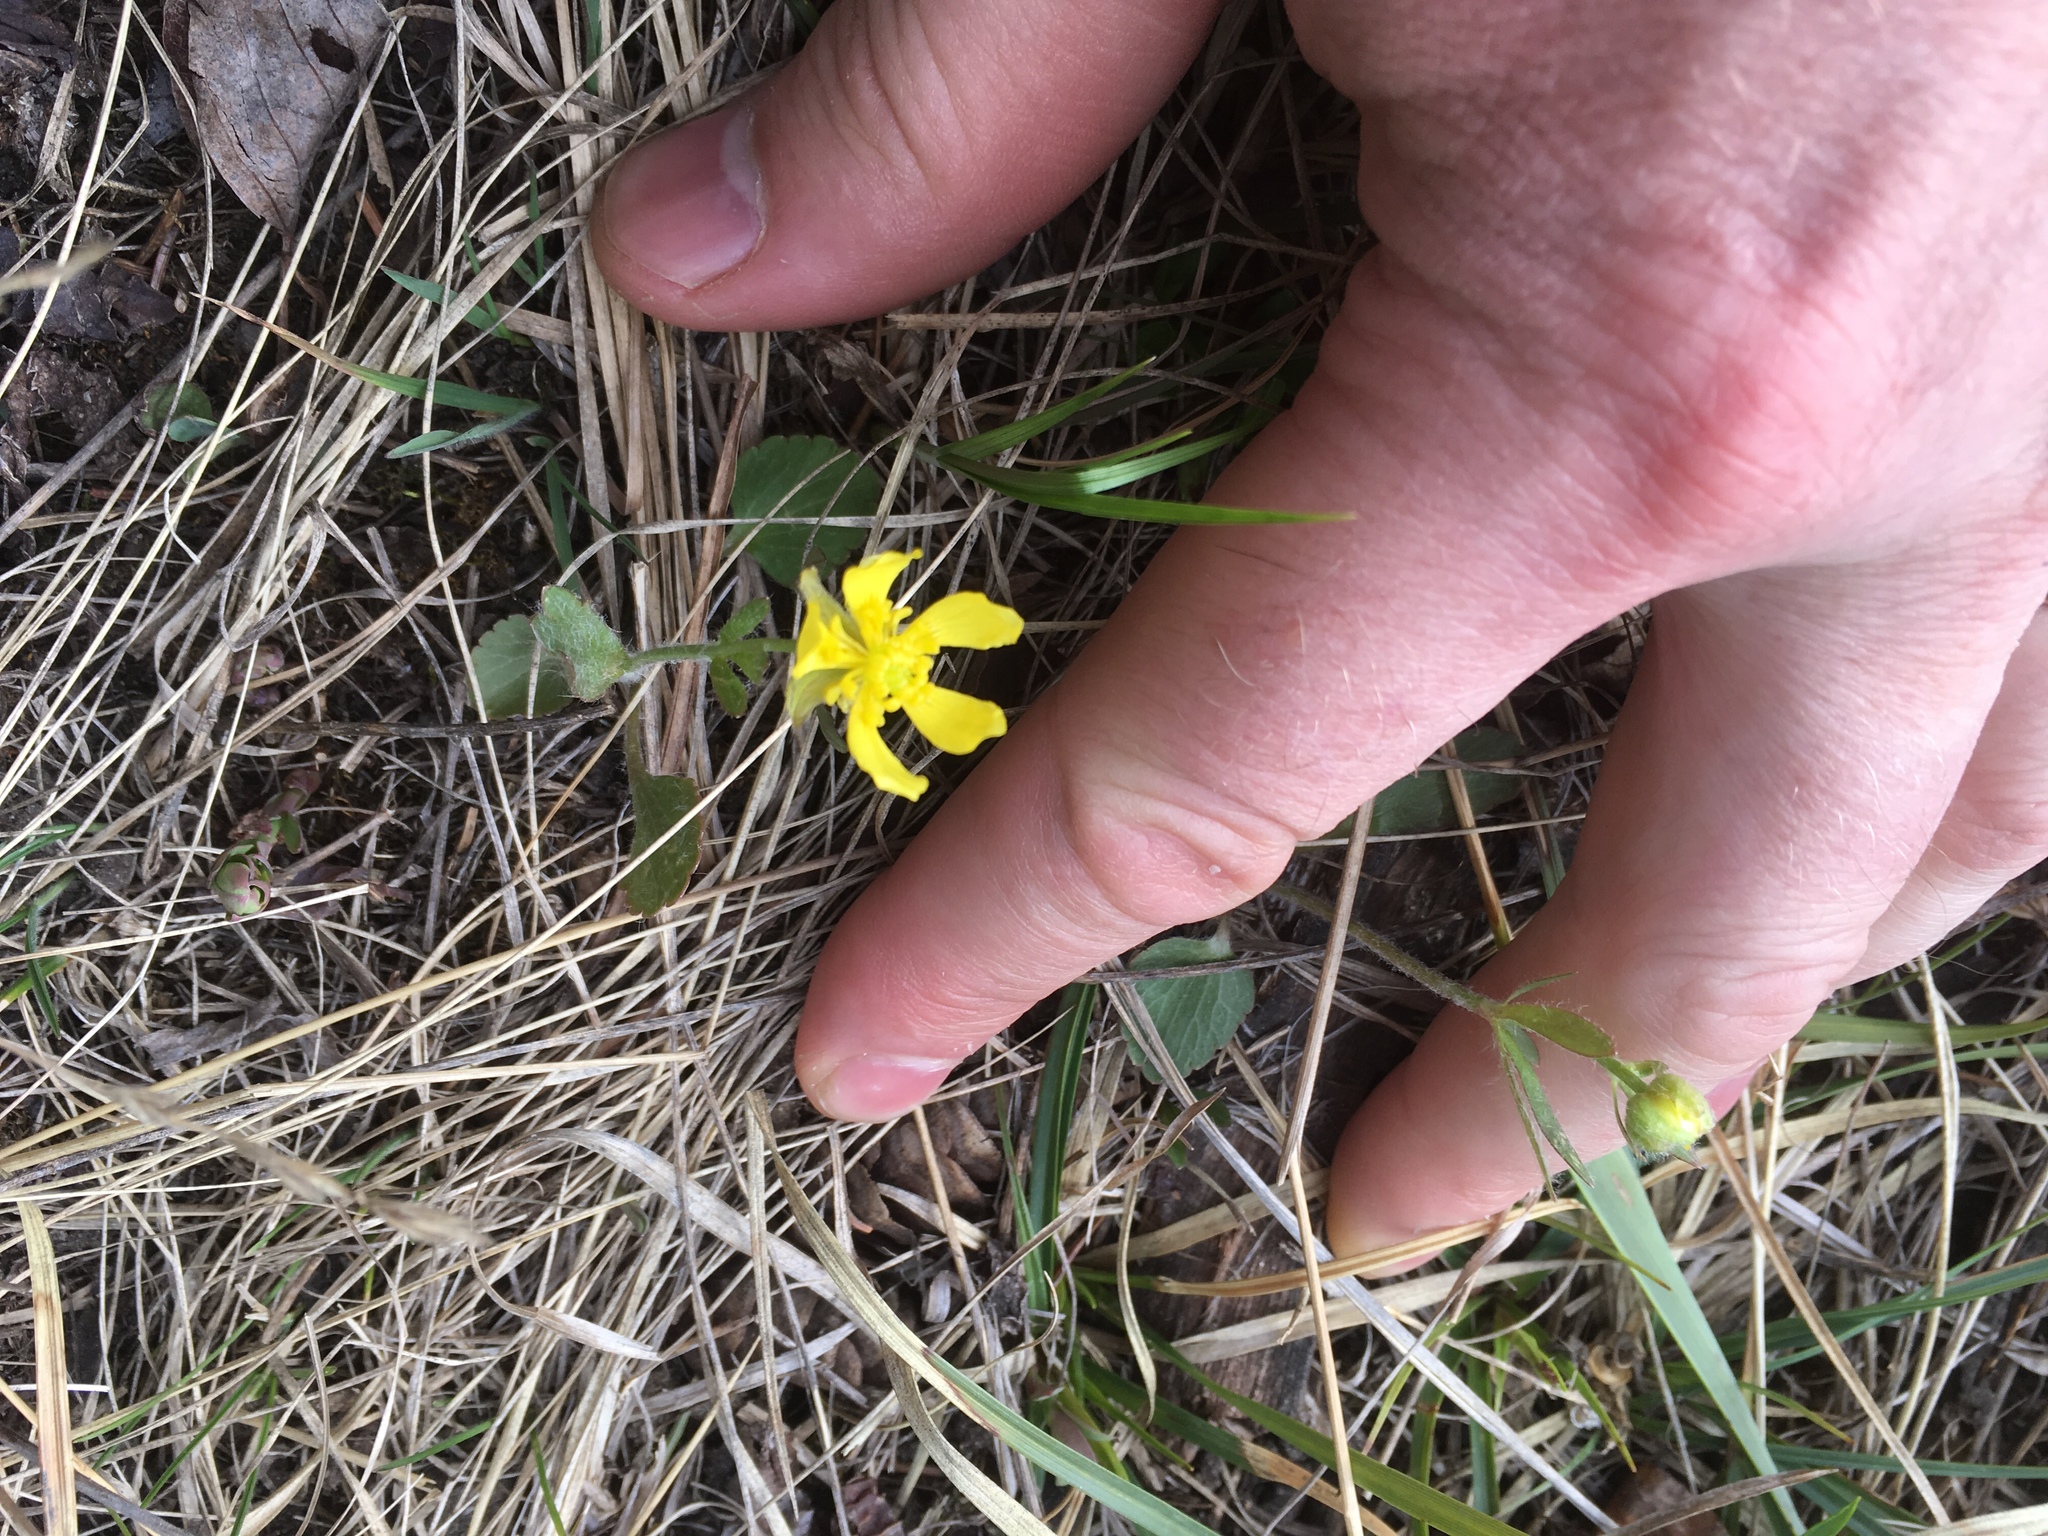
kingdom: Plantae
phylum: Tracheophyta
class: Magnoliopsida
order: Ranunculales
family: Ranunculaceae
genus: Ranunculus
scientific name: Ranunculus rhomboideus
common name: Prairie buttercup
